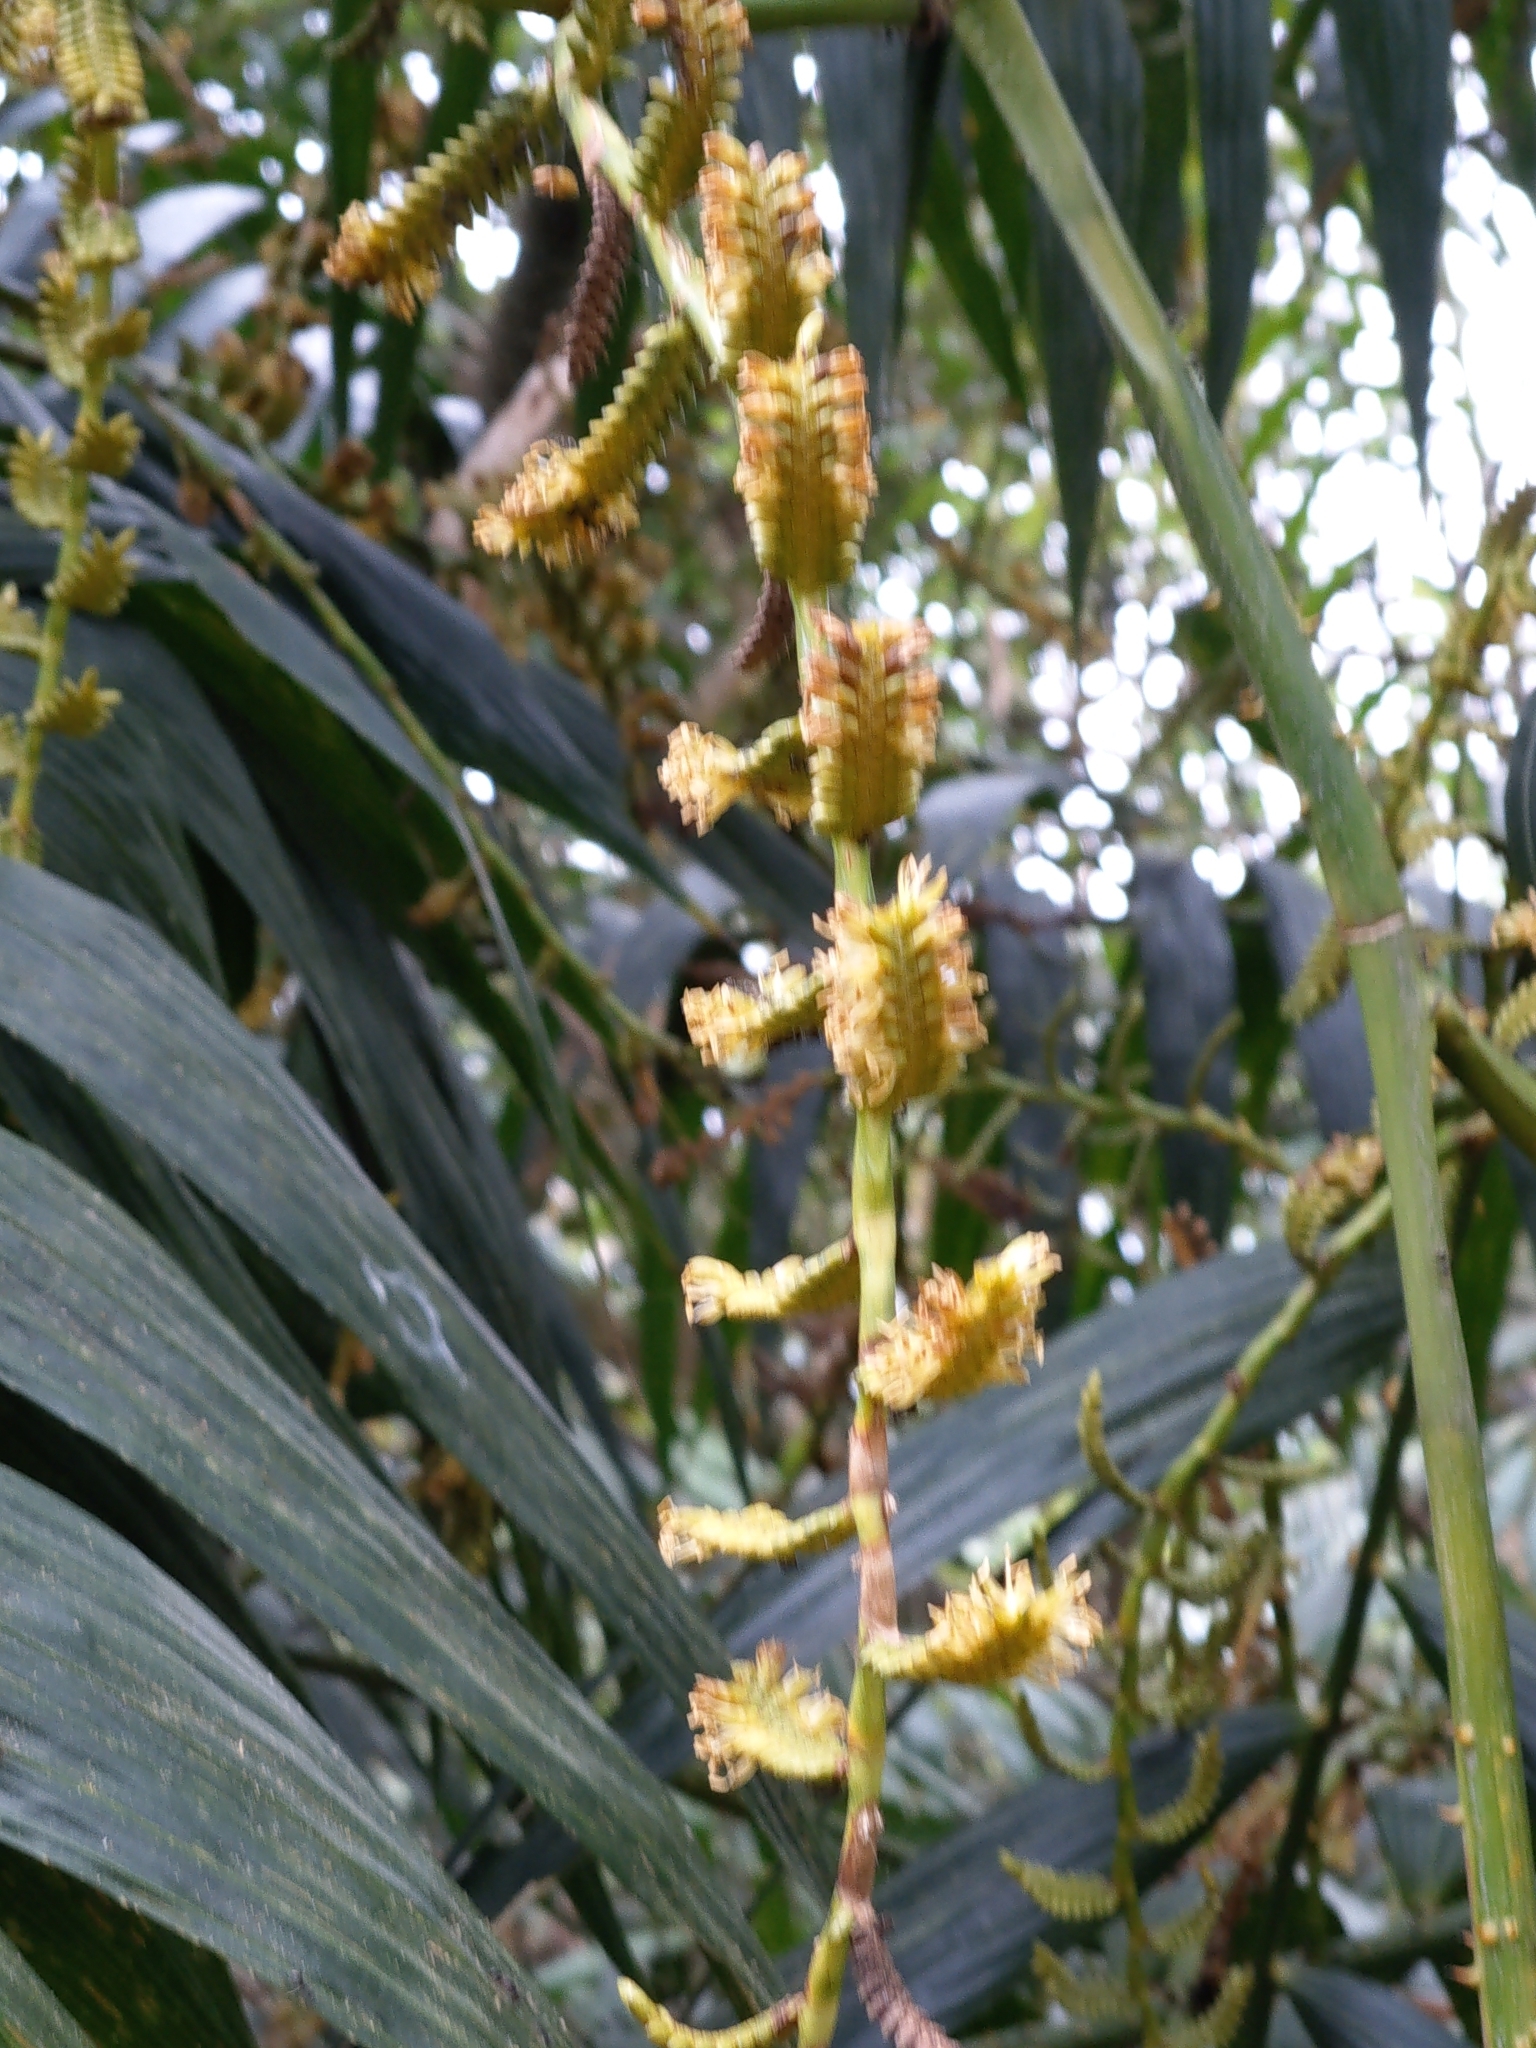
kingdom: Plantae
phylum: Tracheophyta
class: Liliopsida
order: Arecales
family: Arecaceae
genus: Calamus
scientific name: Calamus formosanus
